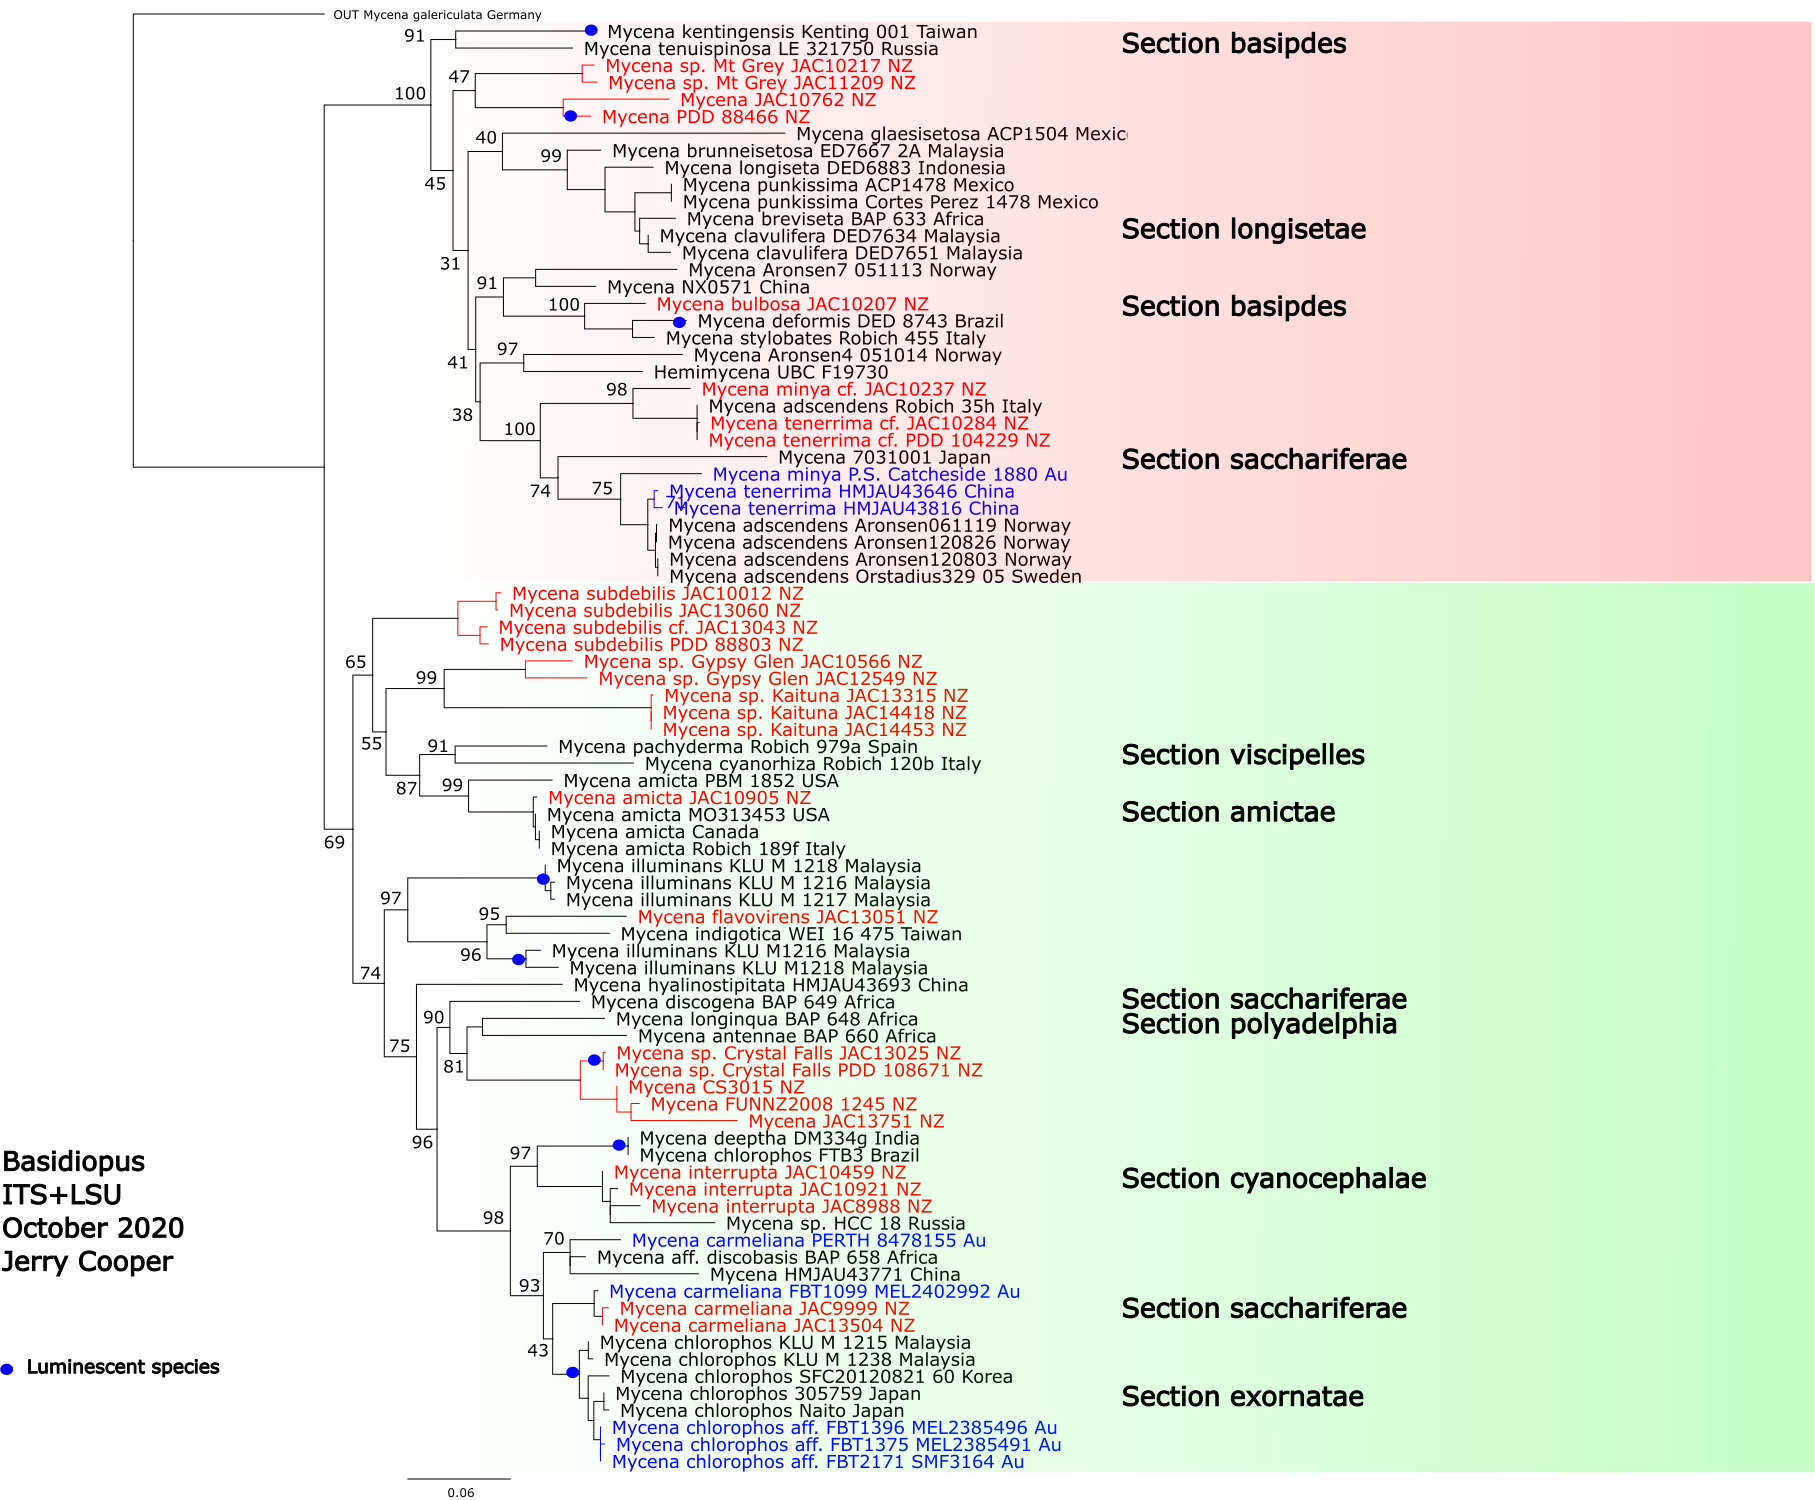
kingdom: Fungi
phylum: Basidiomycota
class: Agaricomycetes
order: Agaricales
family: Mycenaceae
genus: Mycena
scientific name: Mycena bulbosa
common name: Rush bonnet
